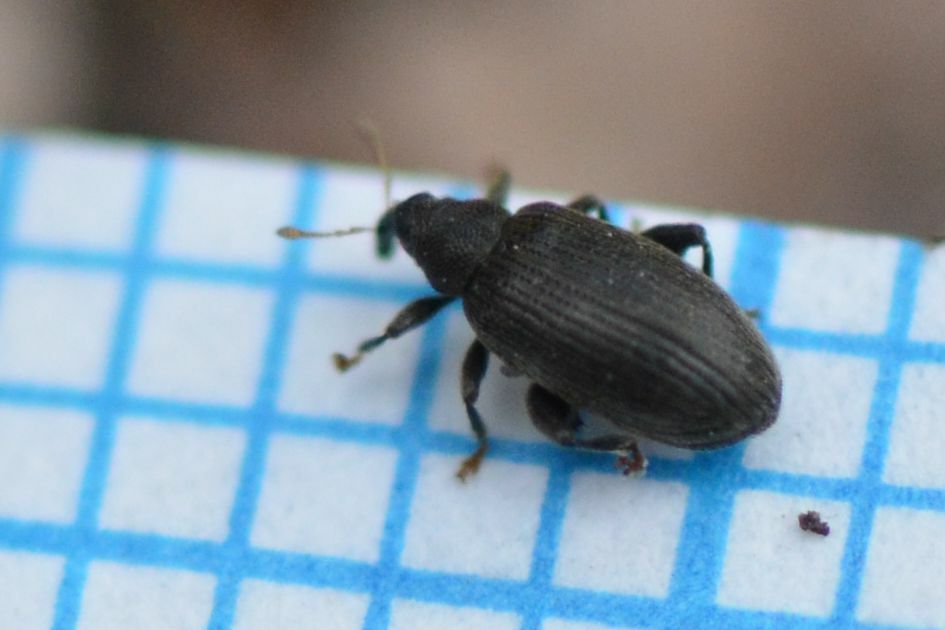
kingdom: Animalia
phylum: Arthropoda
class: Insecta
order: Coleoptera
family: Curculionidae
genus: Orchestes
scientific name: Orchestes fagi
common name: Beech leaf miner
